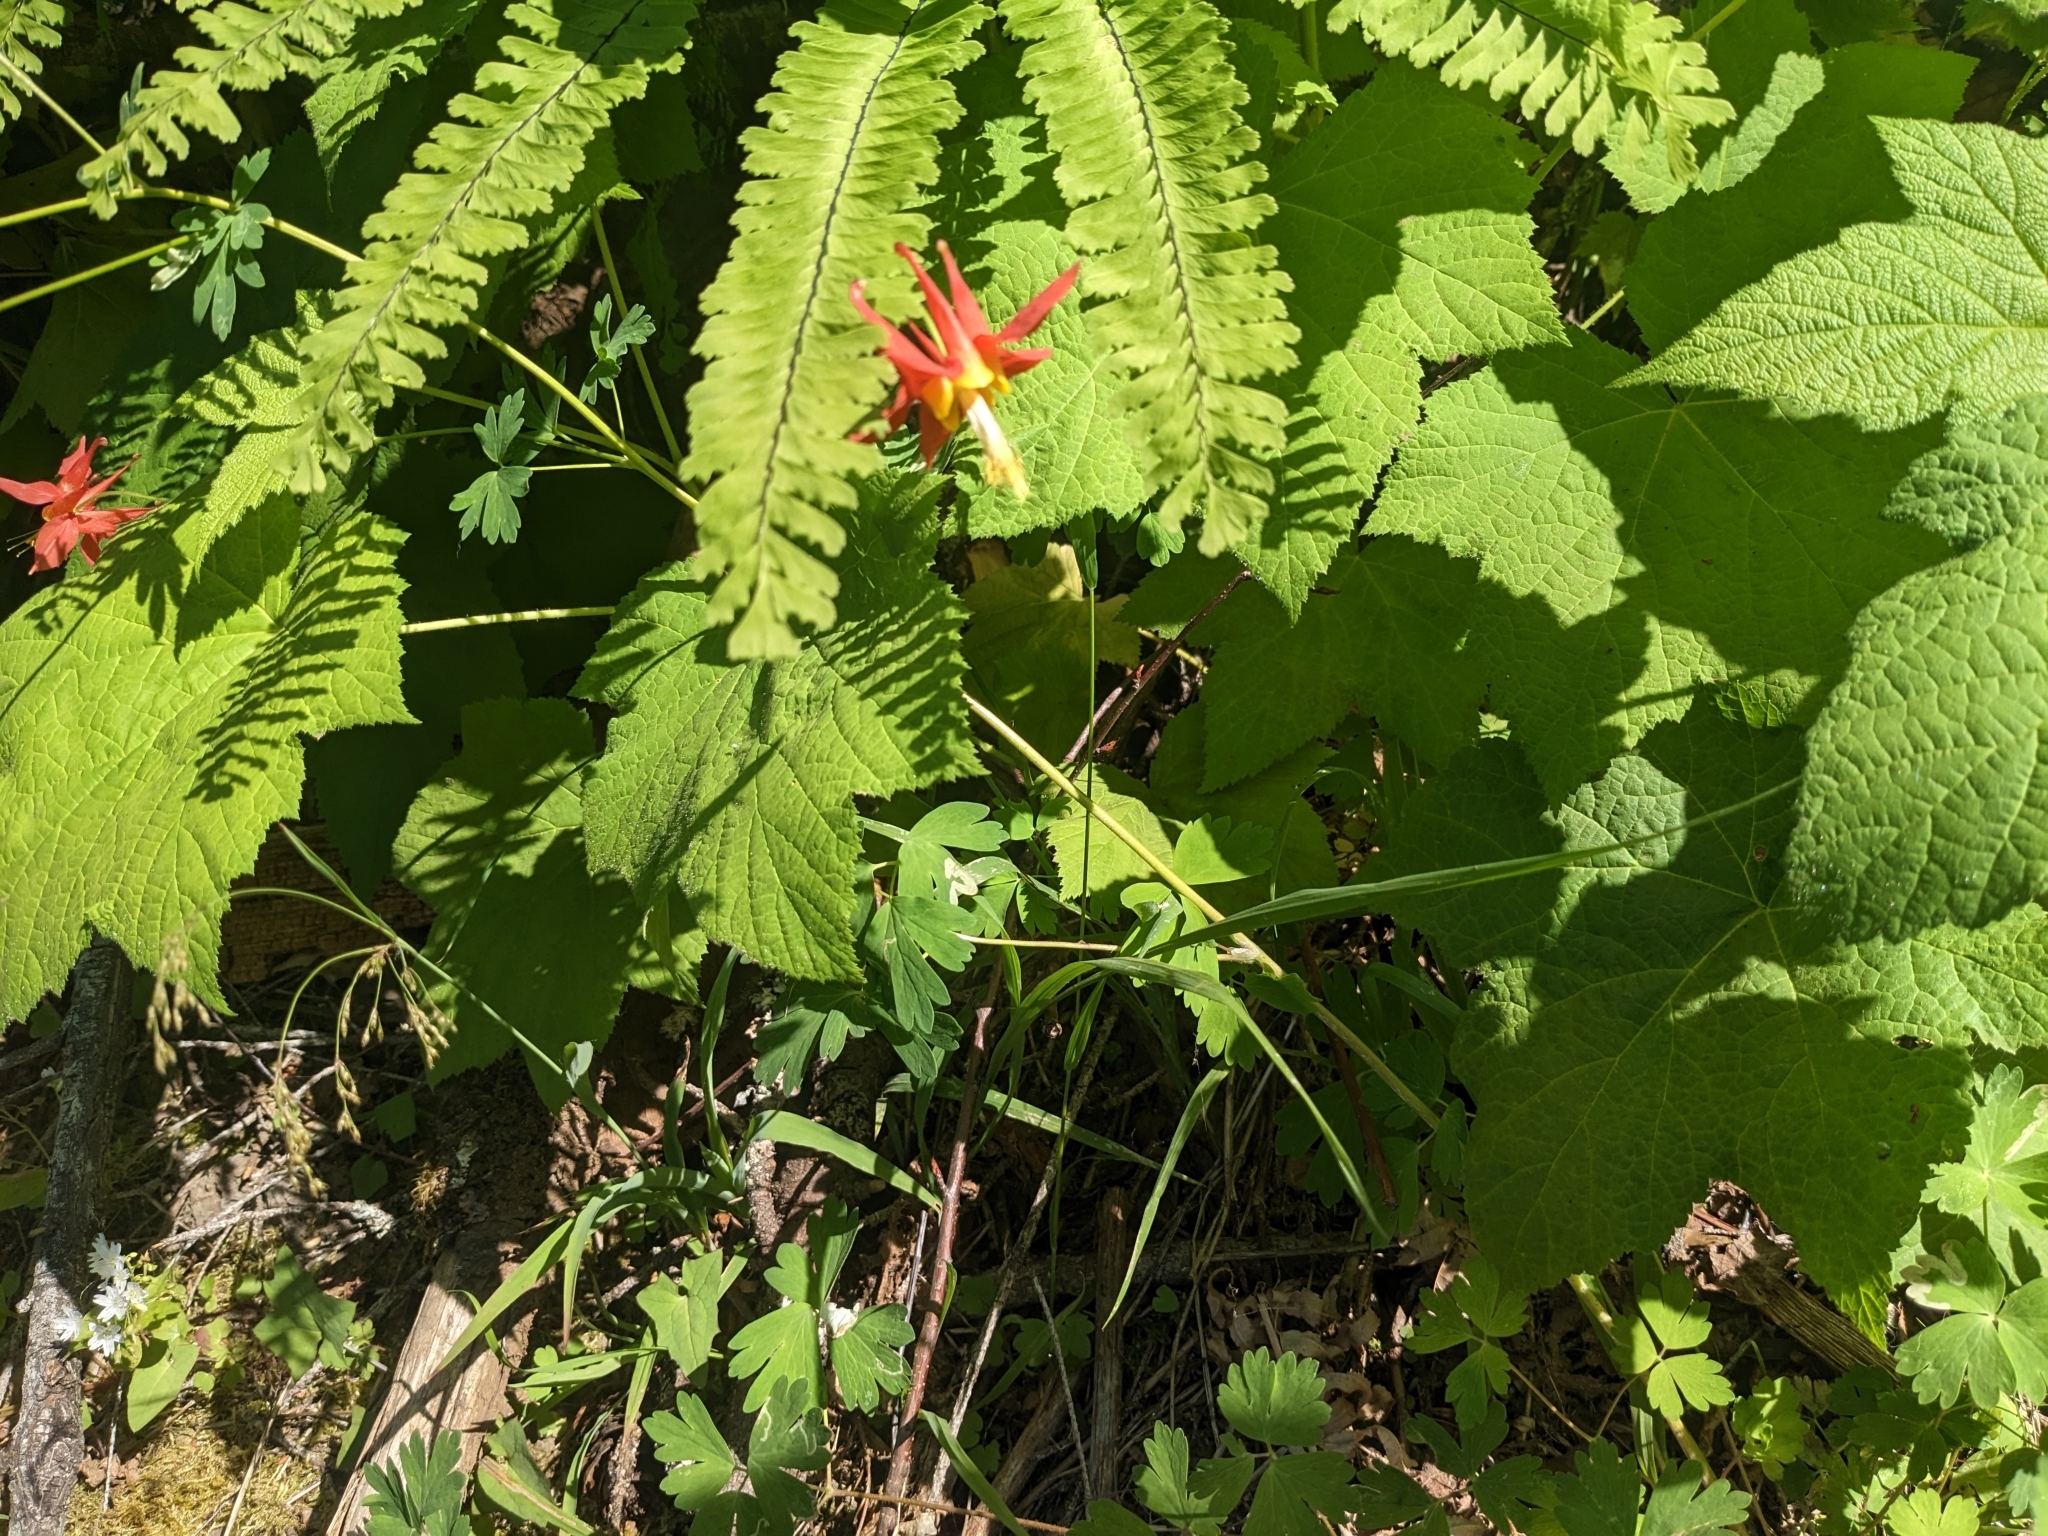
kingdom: Plantae
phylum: Tracheophyta
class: Magnoliopsida
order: Ranunculales
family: Ranunculaceae
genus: Aquilegia
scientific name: Aquilegia formosa
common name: Sitka columbine
